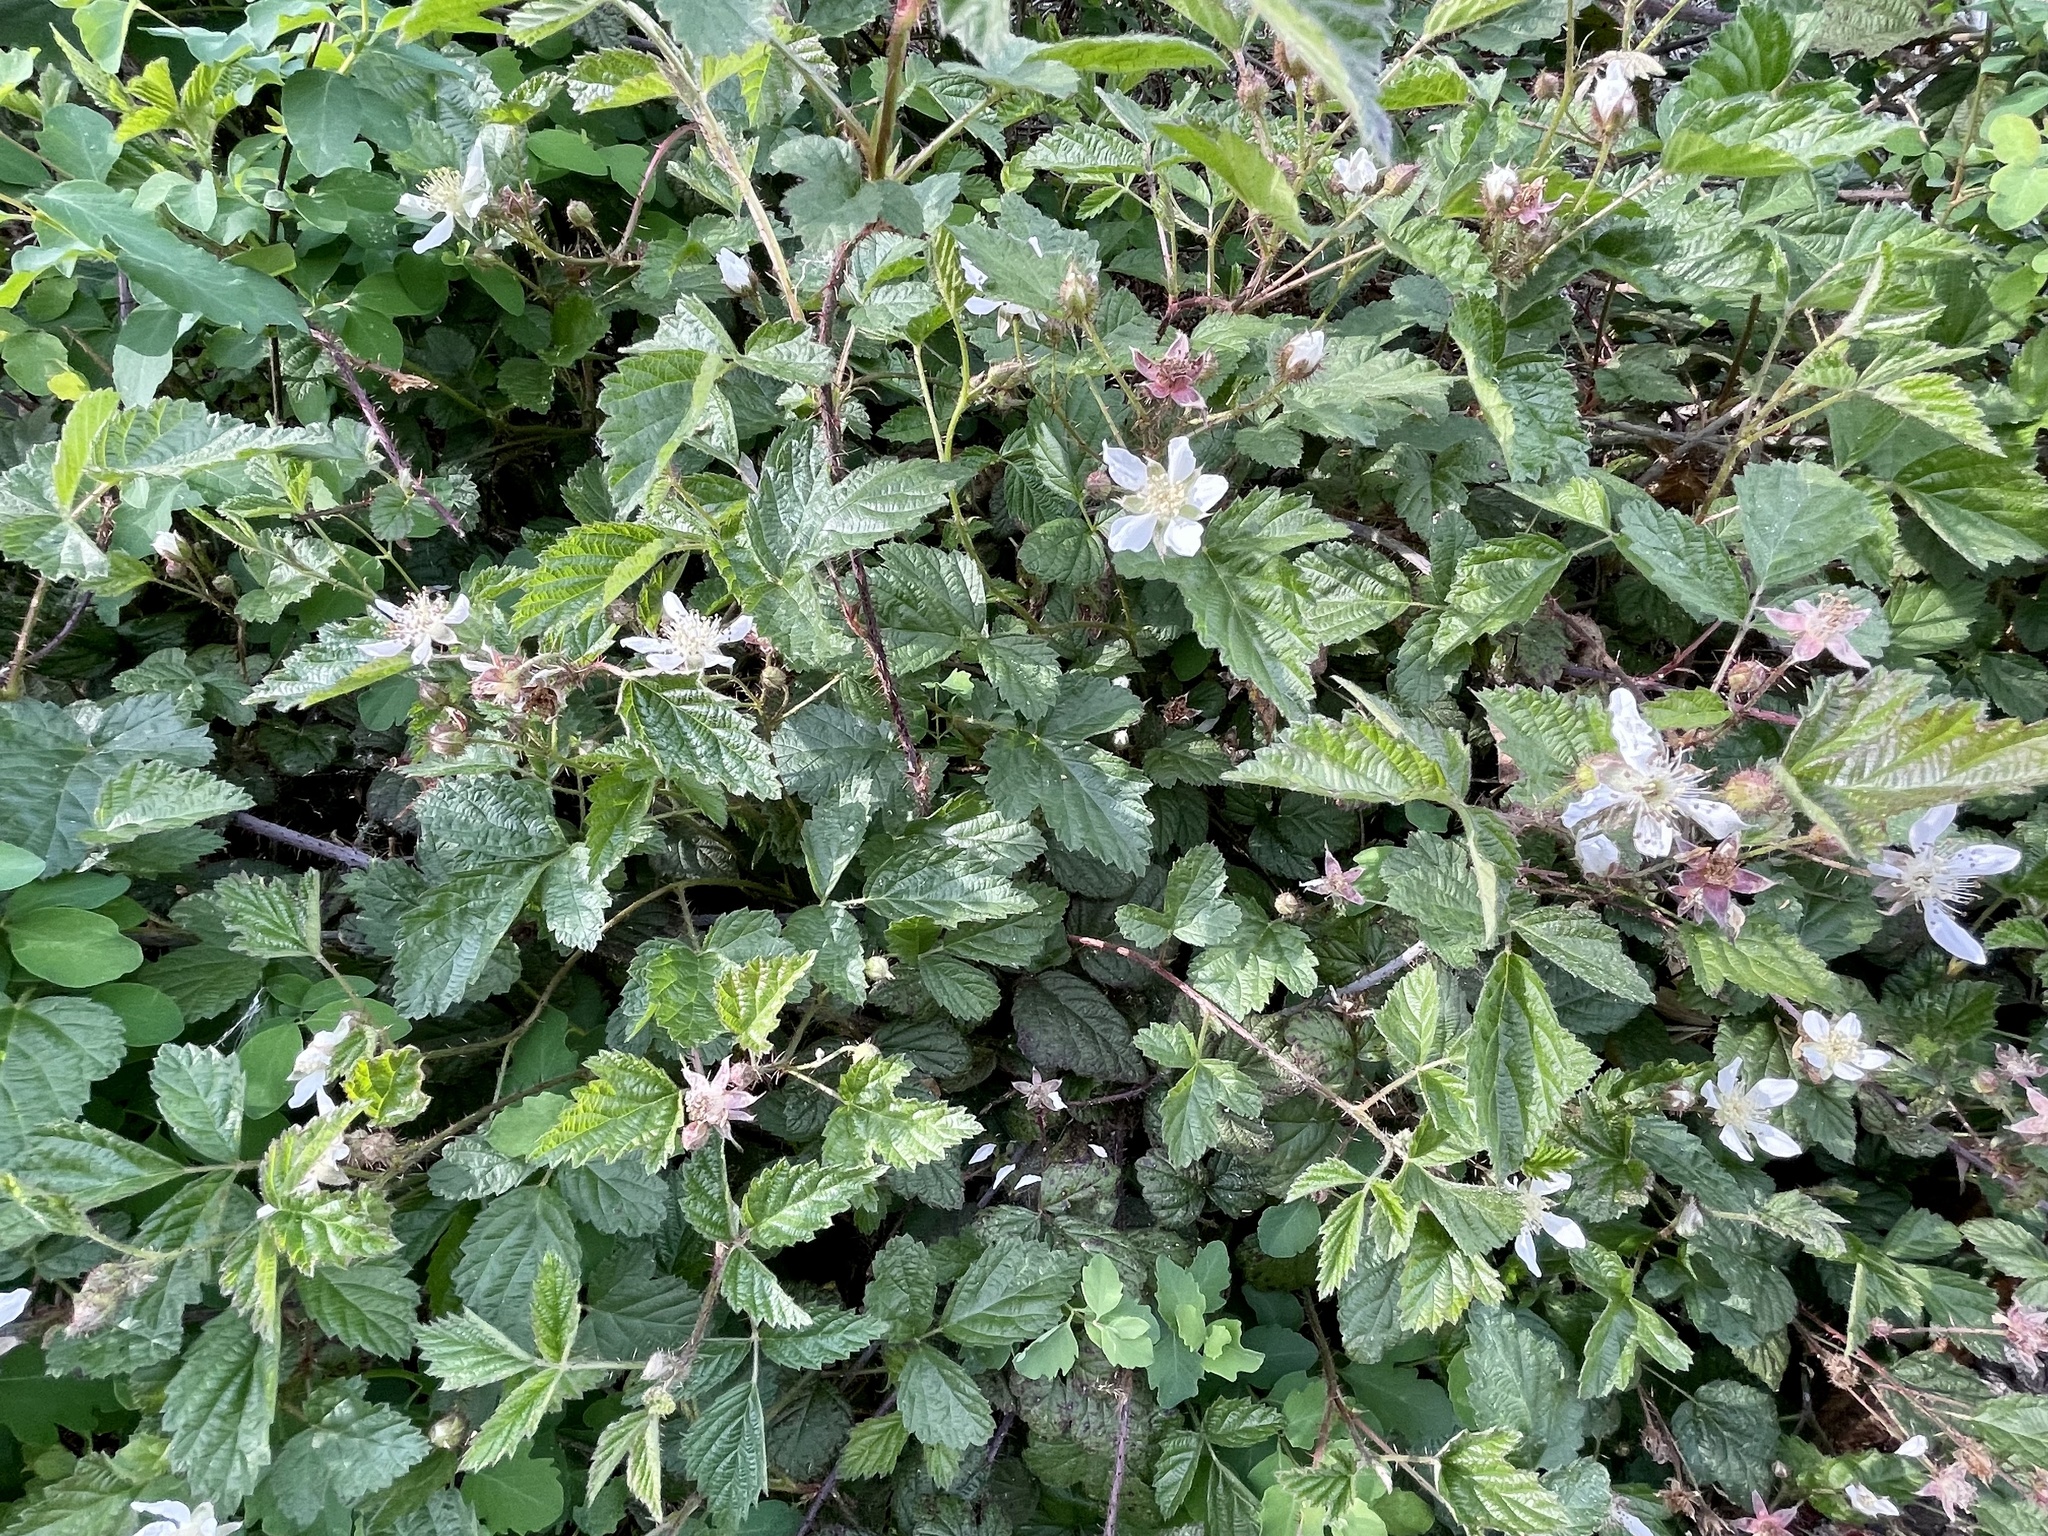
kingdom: Plantae
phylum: Tracheophyta
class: Magnoliopsida
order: Rosales
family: Rosaceae
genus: Rubus
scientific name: Rubus ursinus
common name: Pacific blackberry
